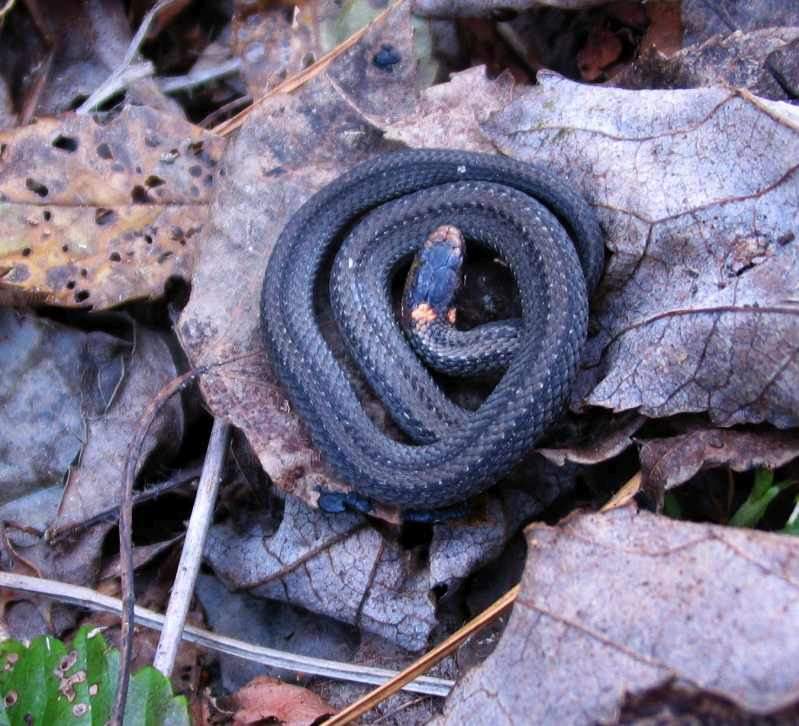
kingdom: Animalia
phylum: Chordata
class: Squamata
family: Colubridae
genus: Storeria
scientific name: Storeria occipitomaculata
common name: Redbelly snake
